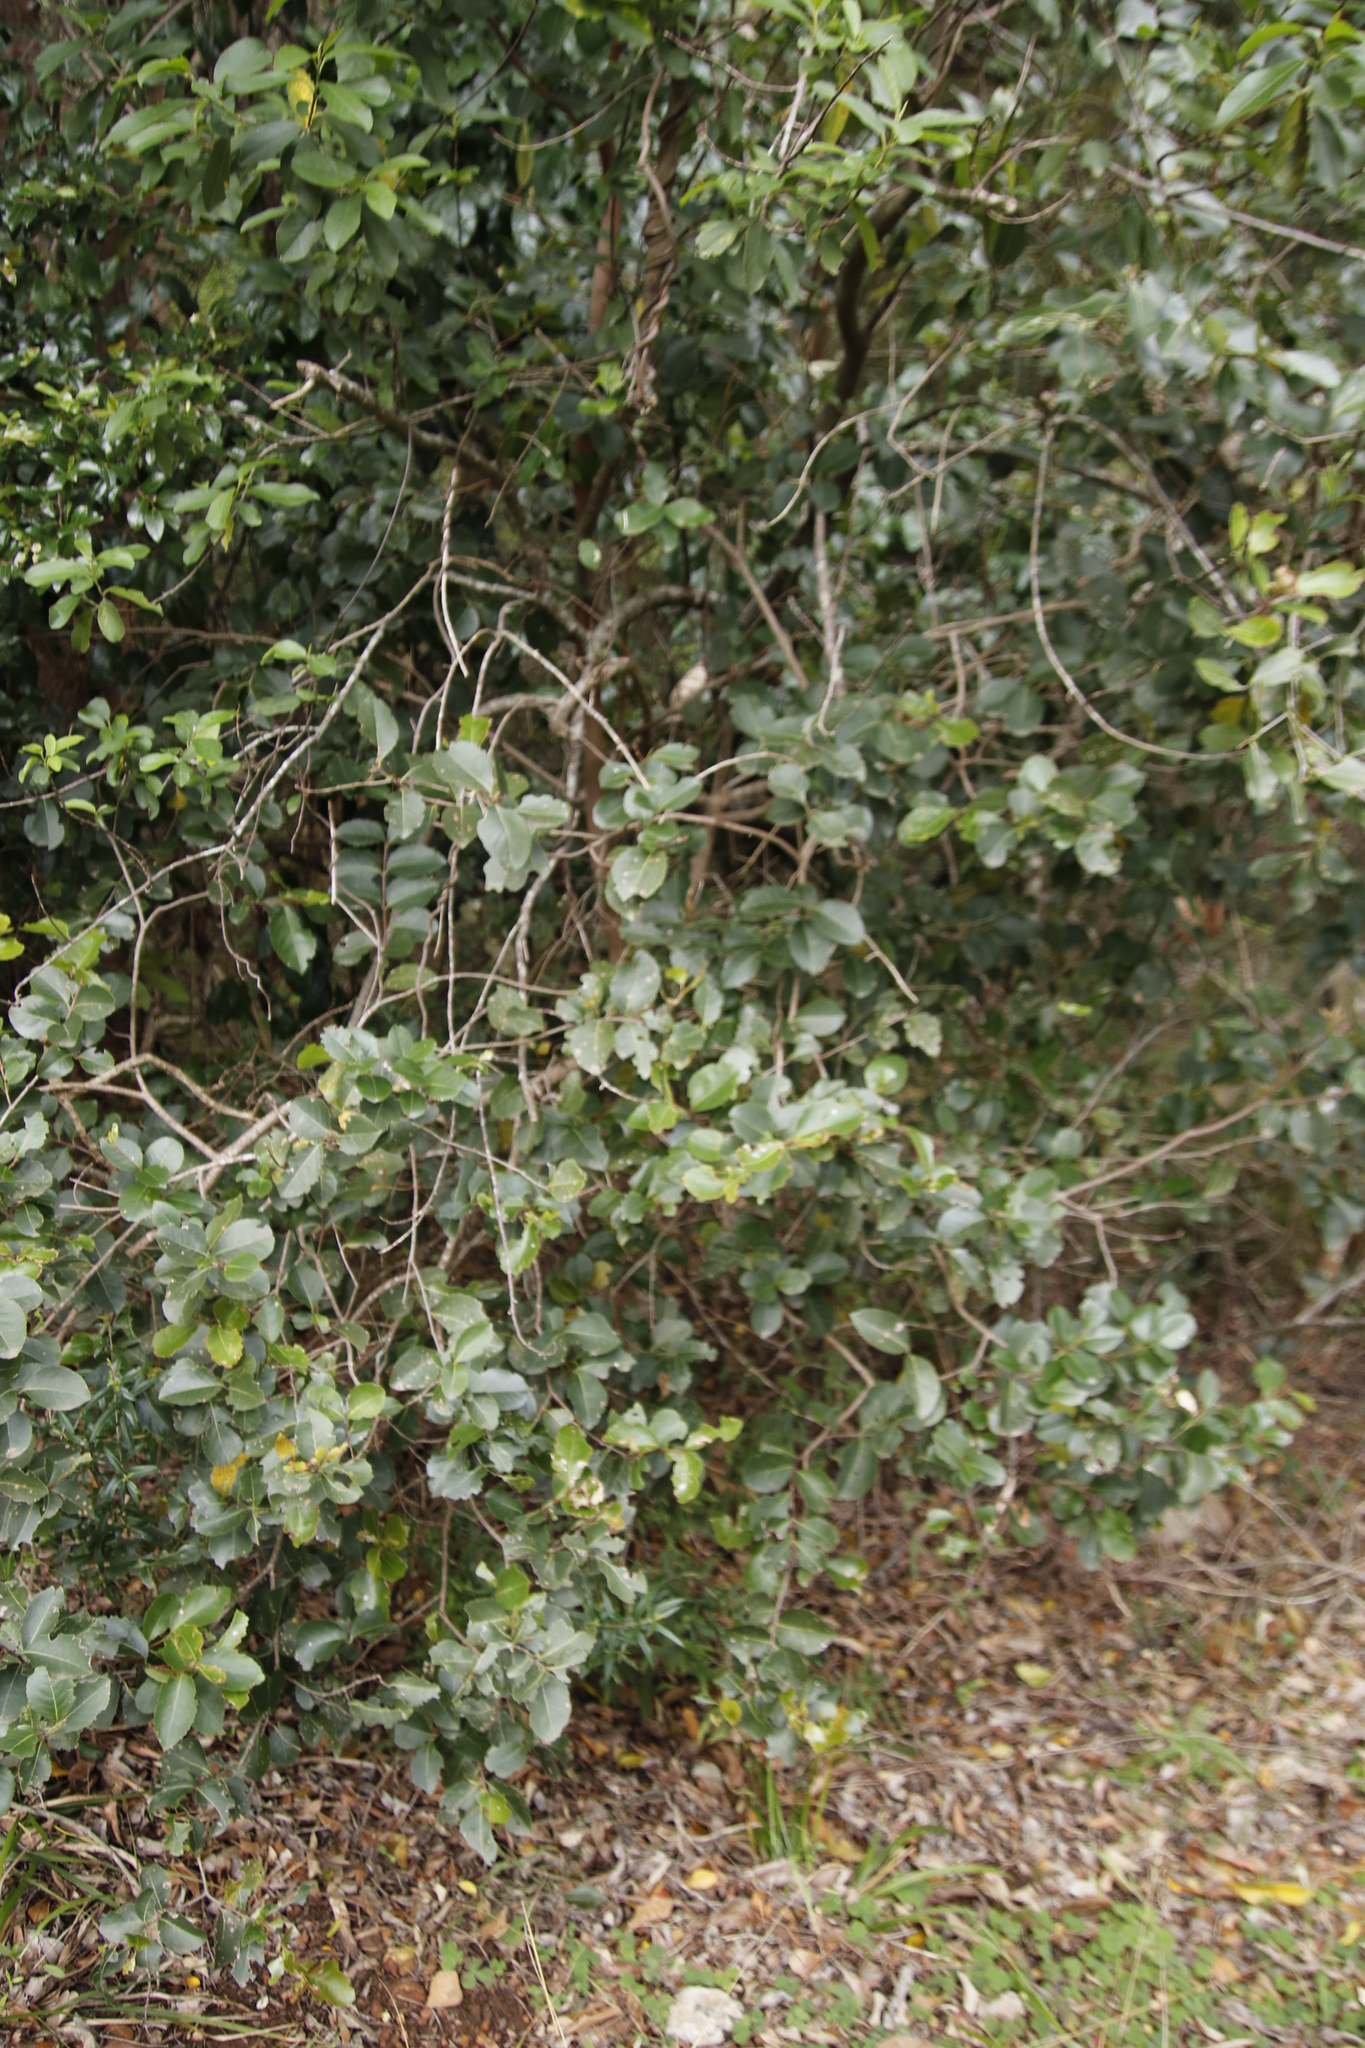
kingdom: Plantae
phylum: Tracheophyta
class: Magnoliopsida
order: Celastrales
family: Celastraceae
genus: Cassine
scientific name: Cassine peragua
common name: Cape saffron
